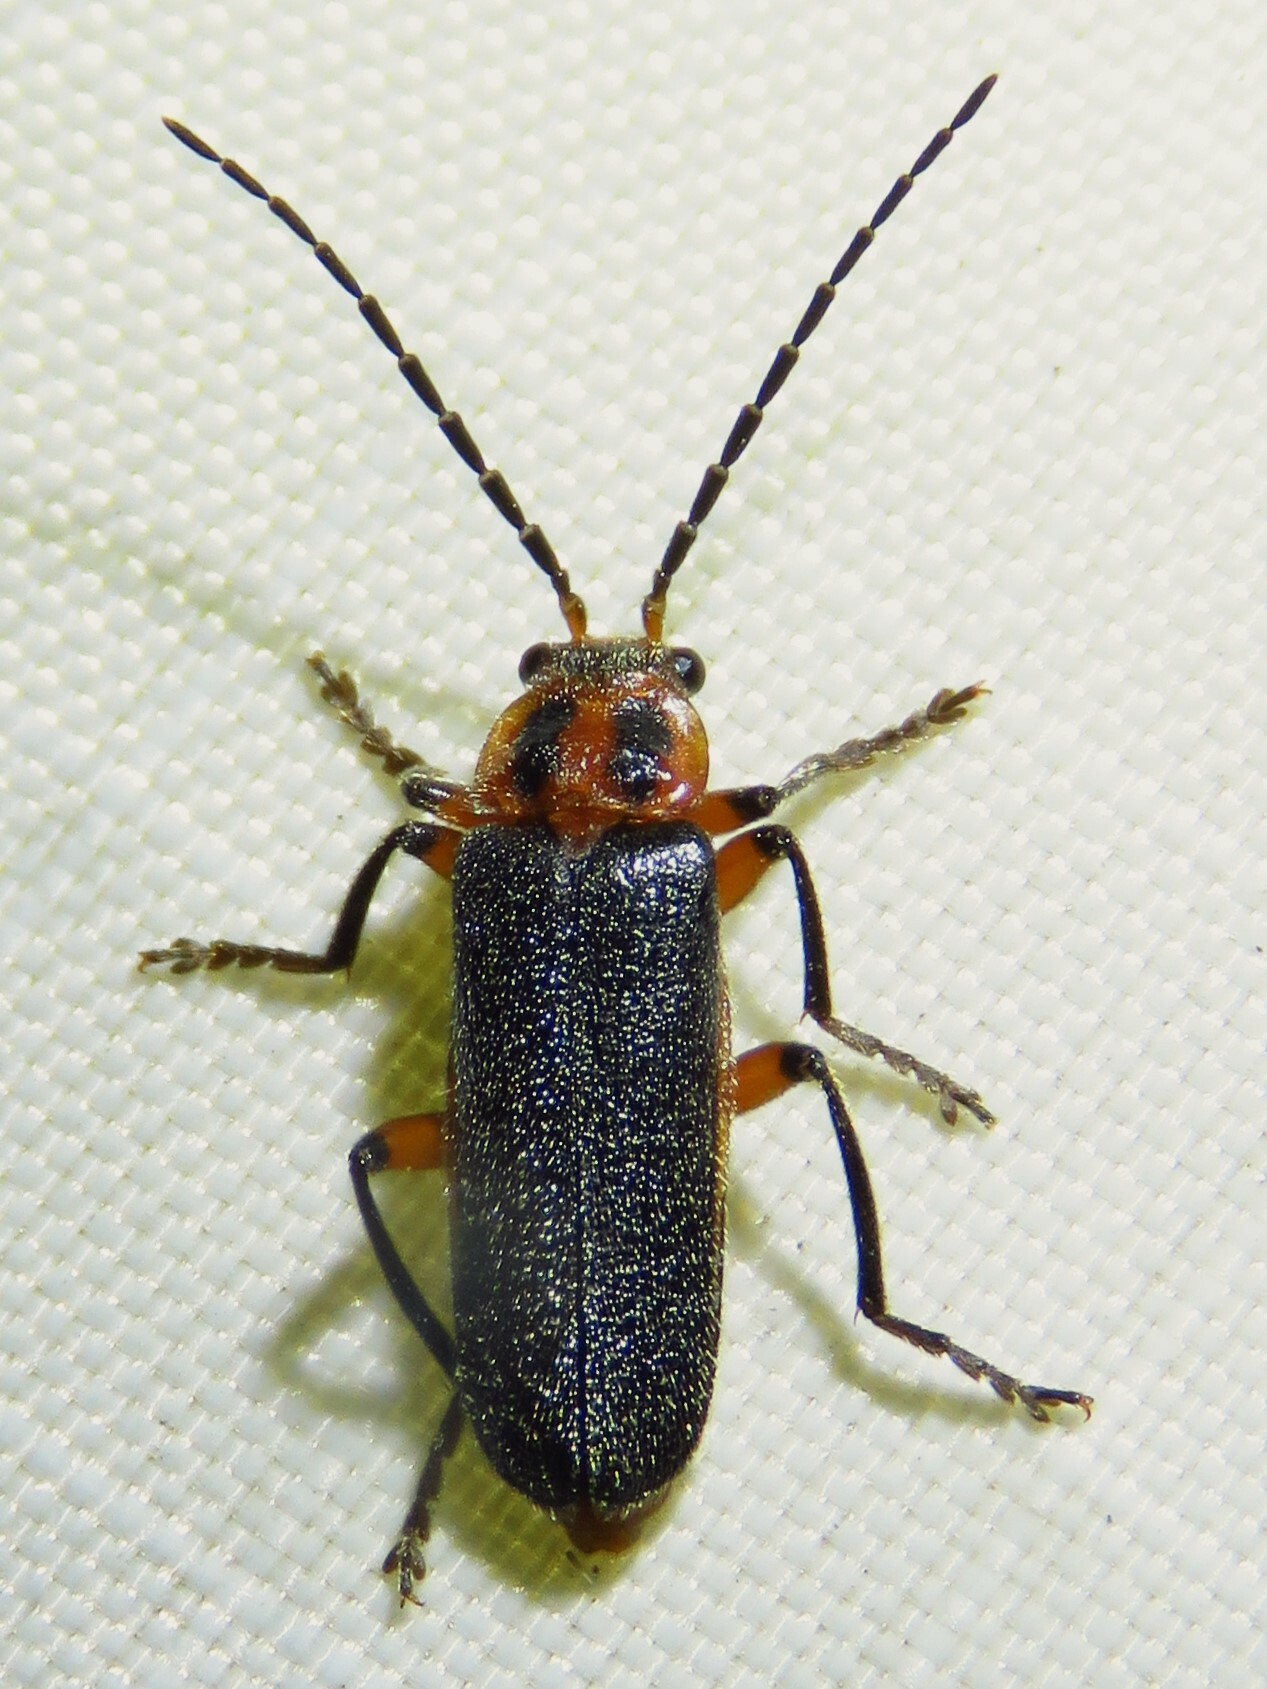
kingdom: Animalia
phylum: Arthropoda
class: Insecta
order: Coleoptera
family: Cantharidae
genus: Atalantycha
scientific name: Atalantycha bilineata
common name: Two-lined leatherwing
